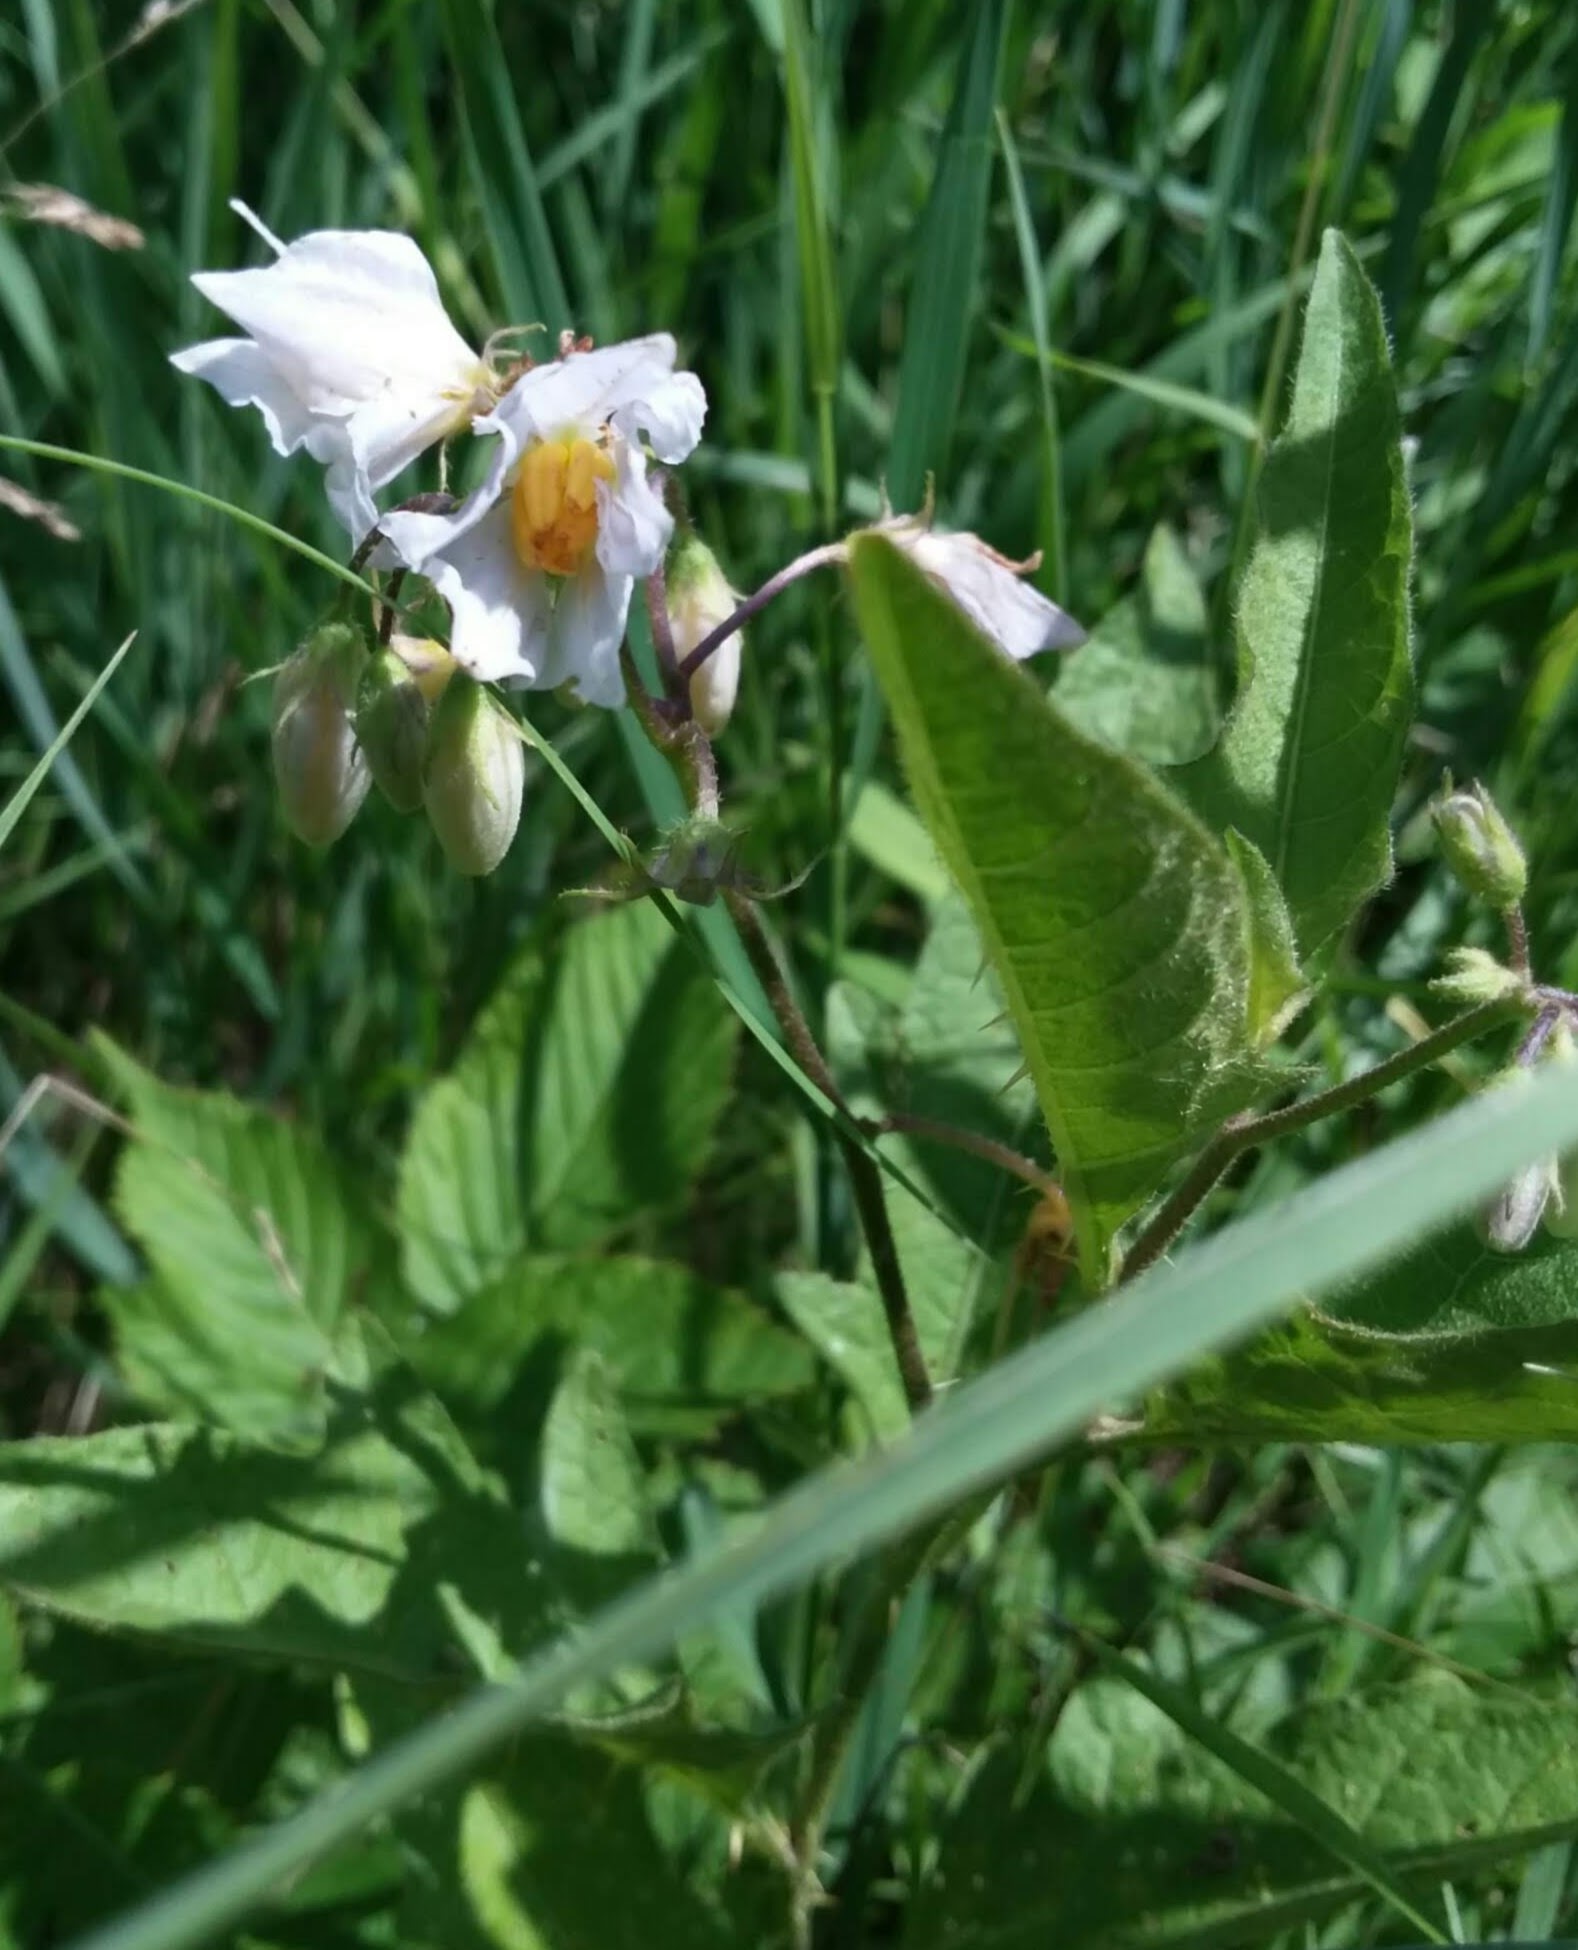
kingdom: Plantae
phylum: Tracheophyta
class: Magnoliopsida
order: Solanales
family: Solanaceae
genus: Solanum
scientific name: Solanum carolinense
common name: Horse-nettle
